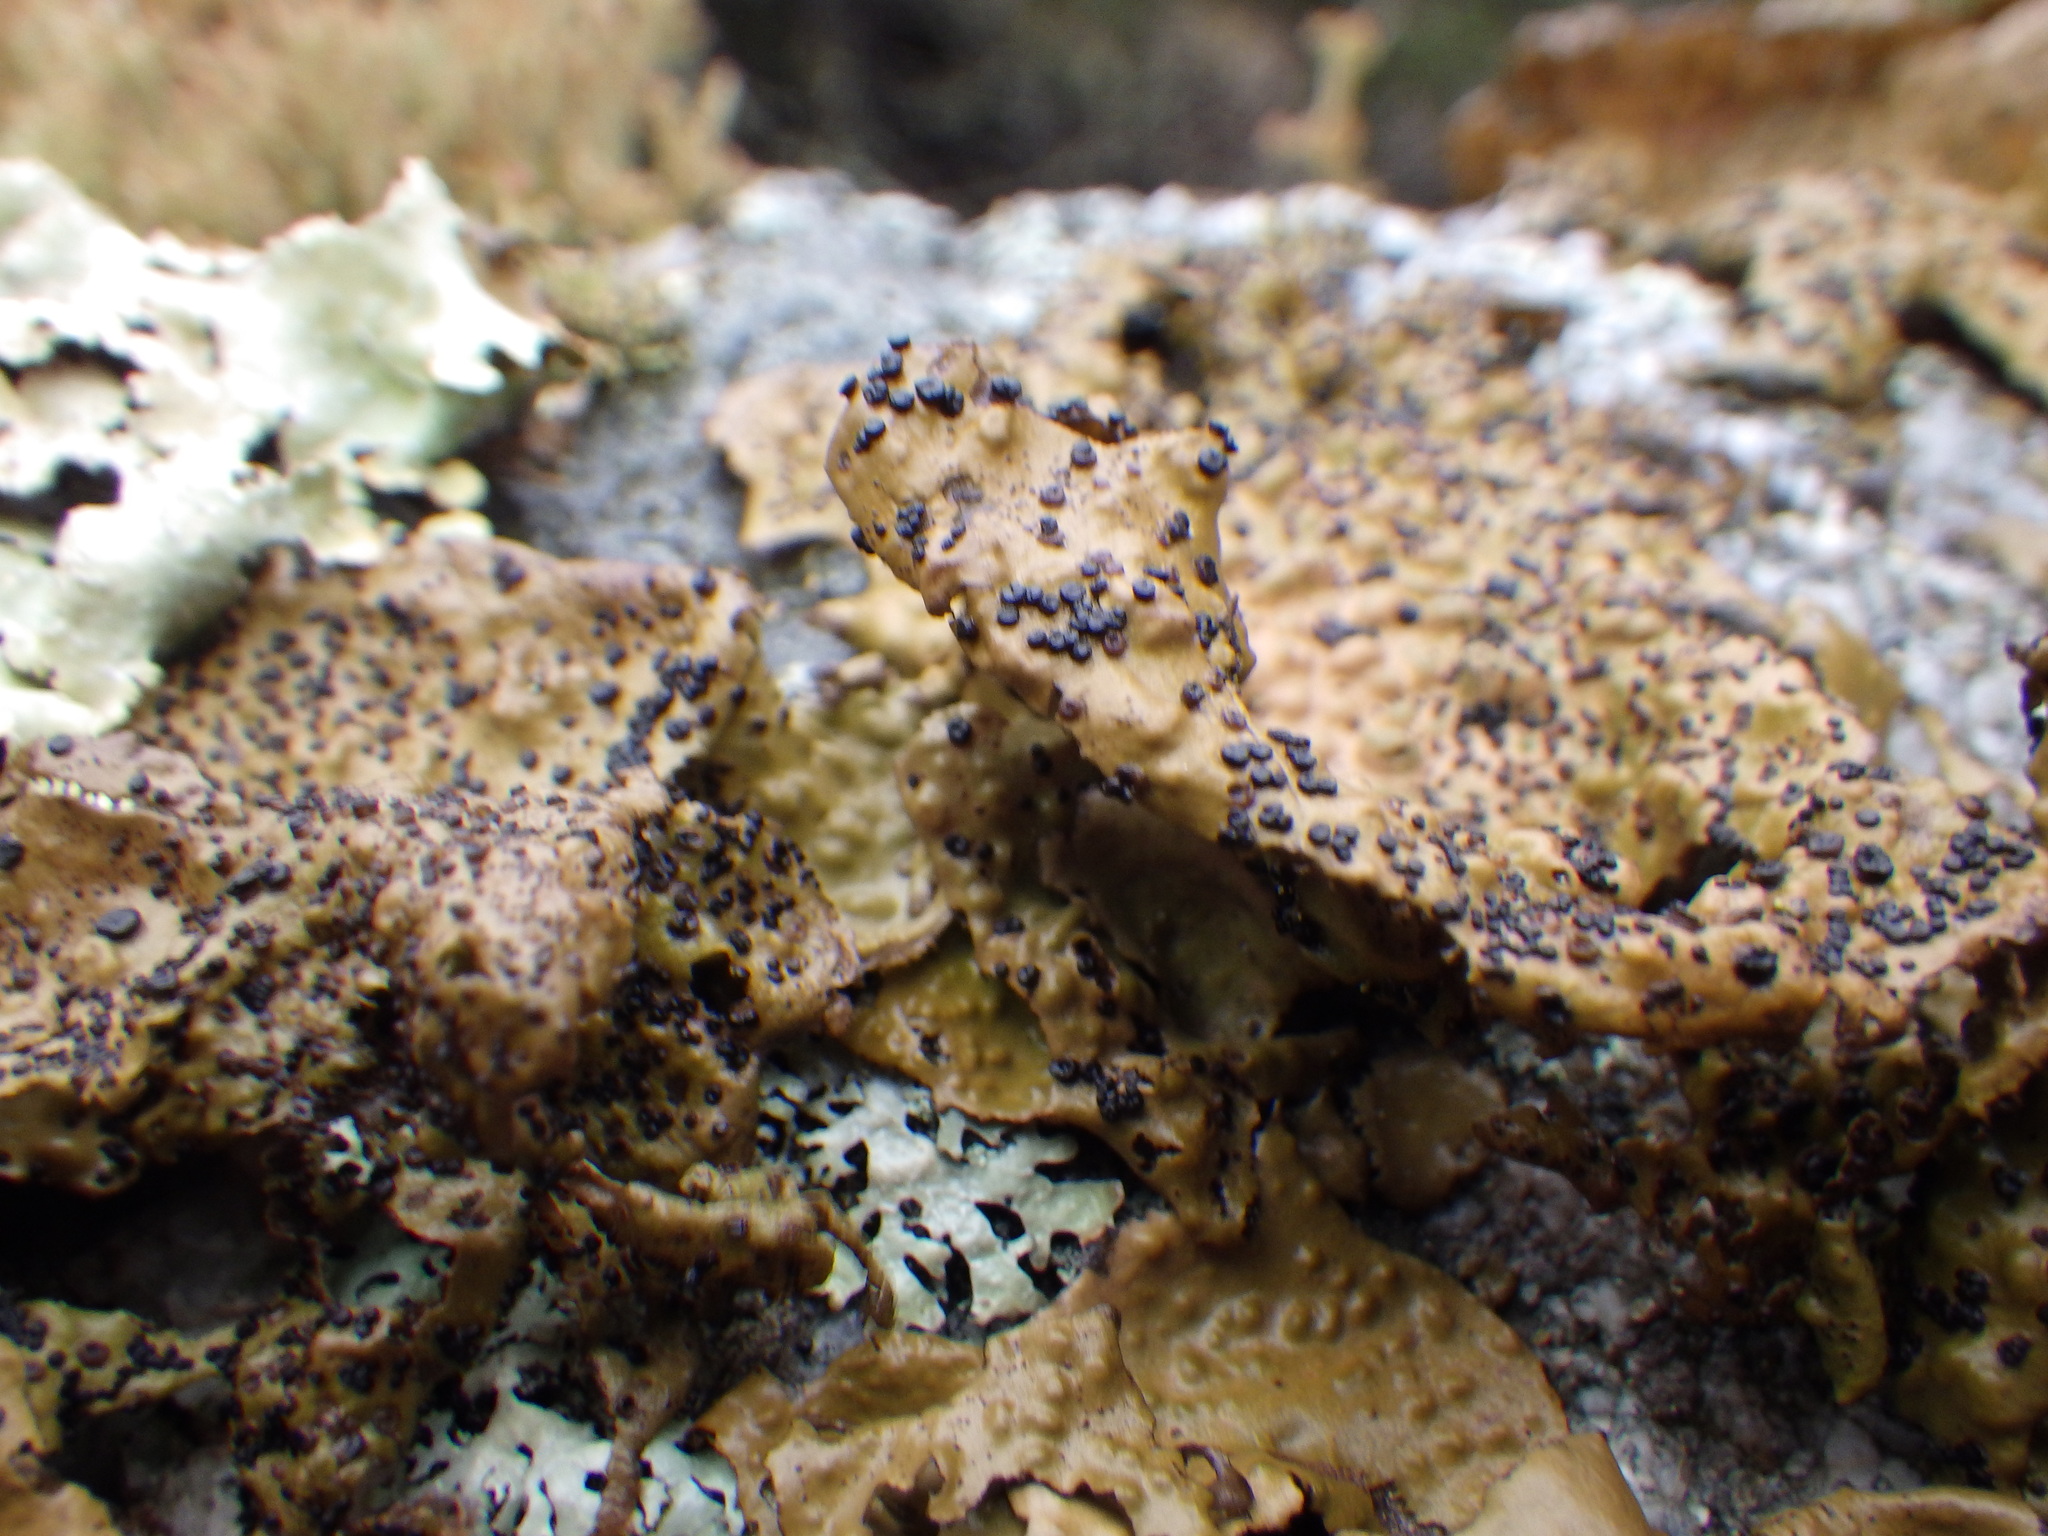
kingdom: Fungi
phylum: Ascomycota
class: Lecanoromycetes
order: Umbilicariales
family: Umbilicariaceae
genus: Lasallia
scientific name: Lasallia papulosa
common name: Common toadskin lichen
